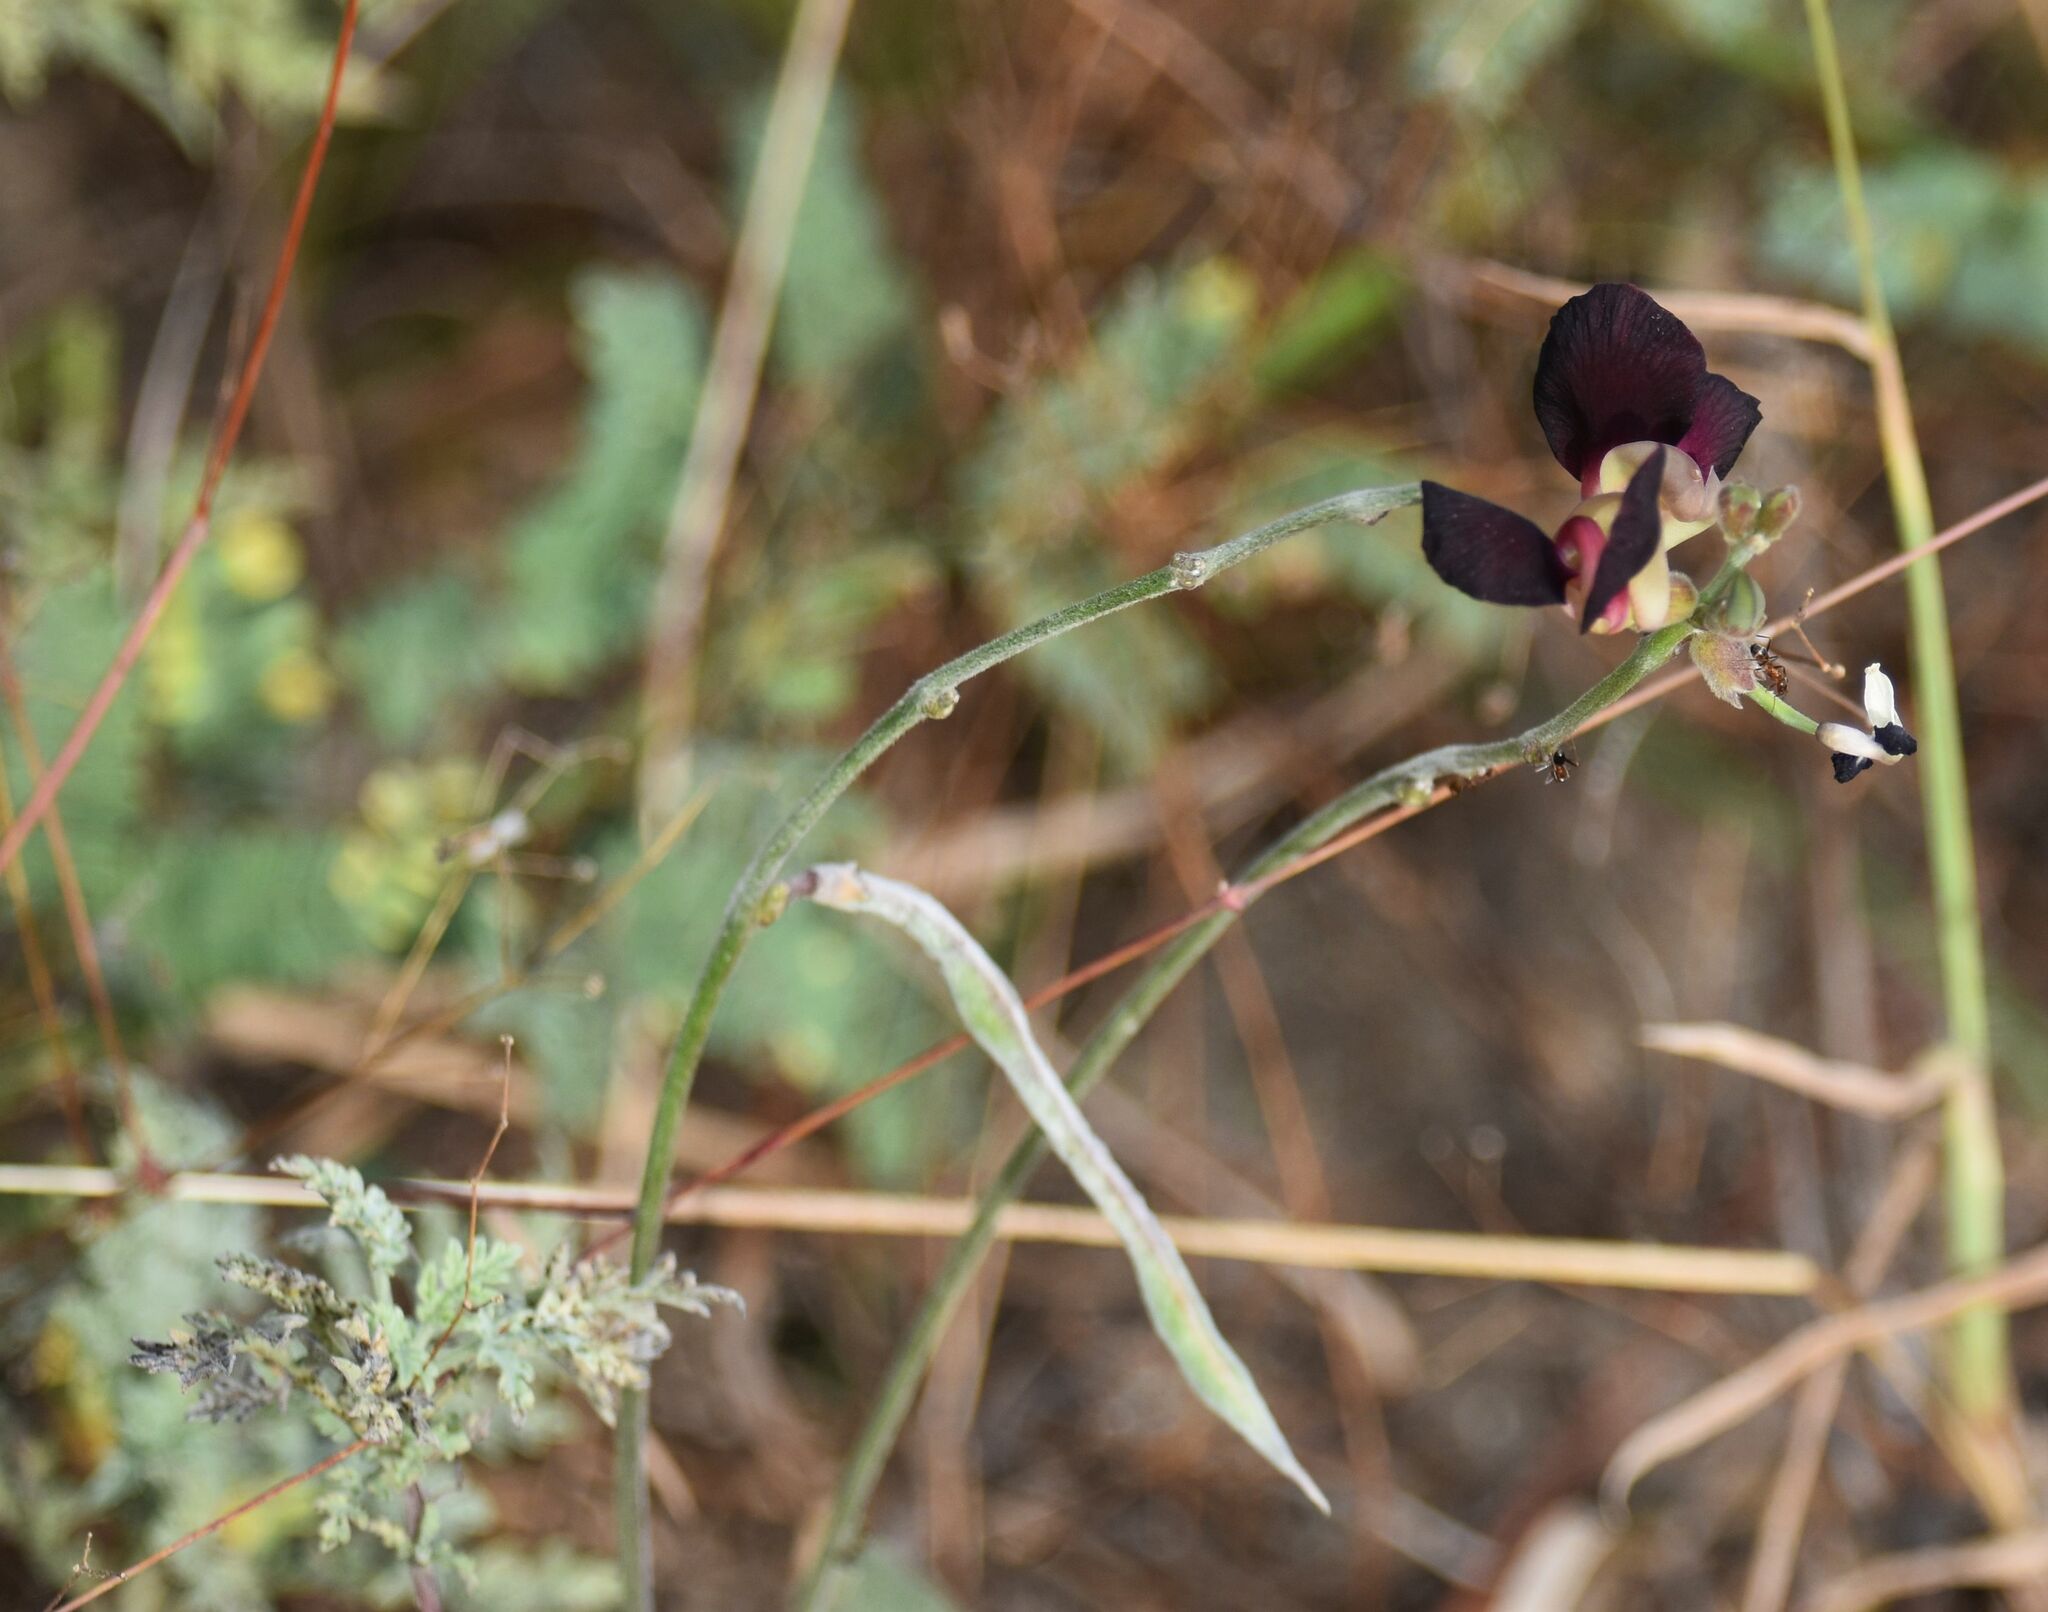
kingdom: Plantae
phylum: Tracheophyta
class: Magnoliopsida
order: Fabales
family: Fabaceae
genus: Macroptilium
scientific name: Macroptilium atropurpureum
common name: Purple bushbean
